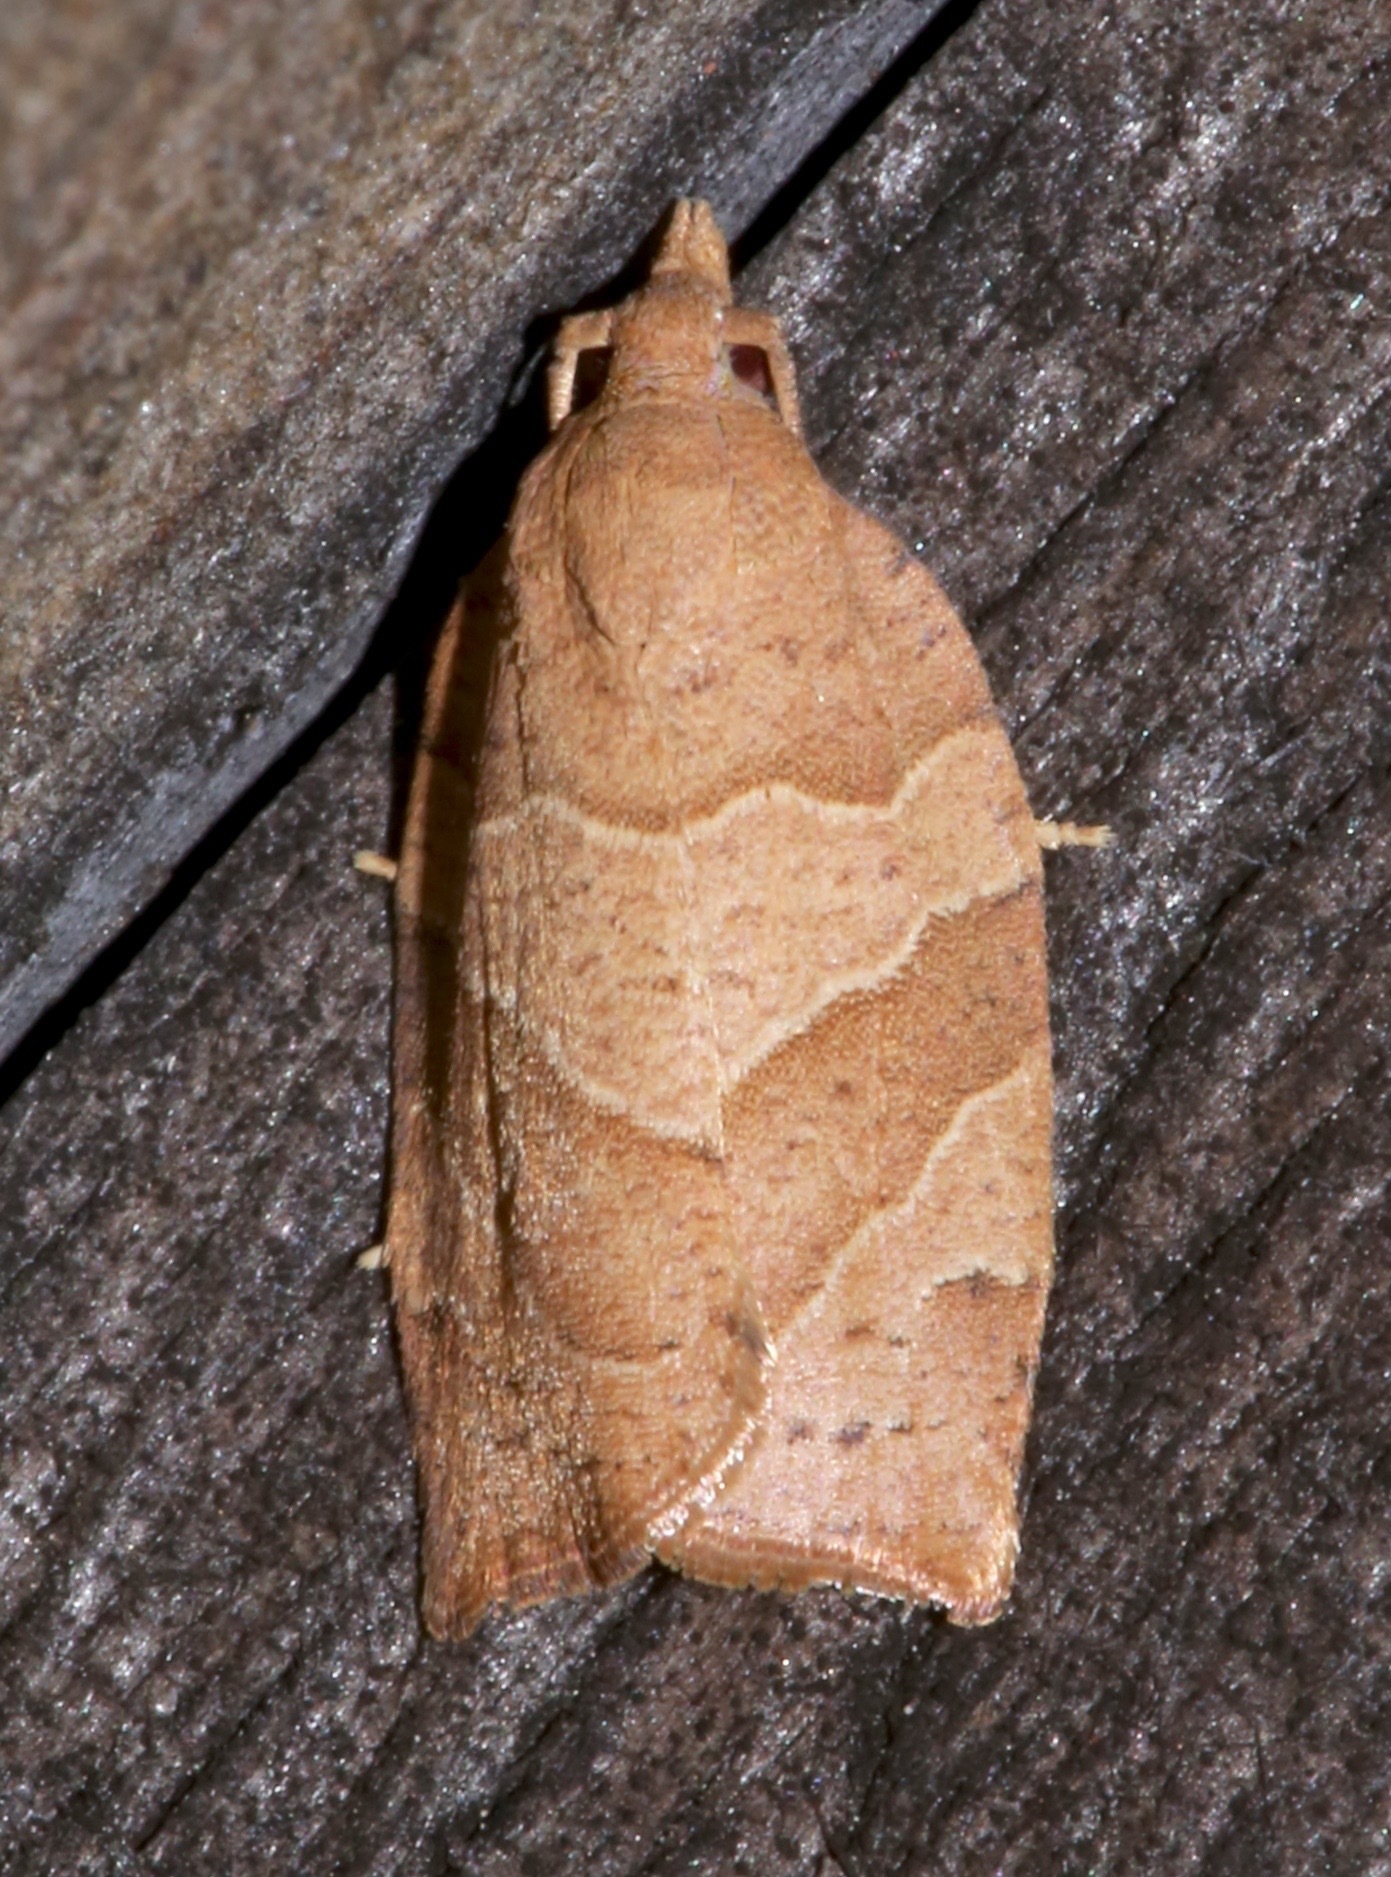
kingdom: Animalia
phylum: Arthropoda
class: Insecta
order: Lepidoptera
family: Tortricidae
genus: Pandemis
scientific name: Pandemis lamprosana
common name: Woodgrain leafroller moth
